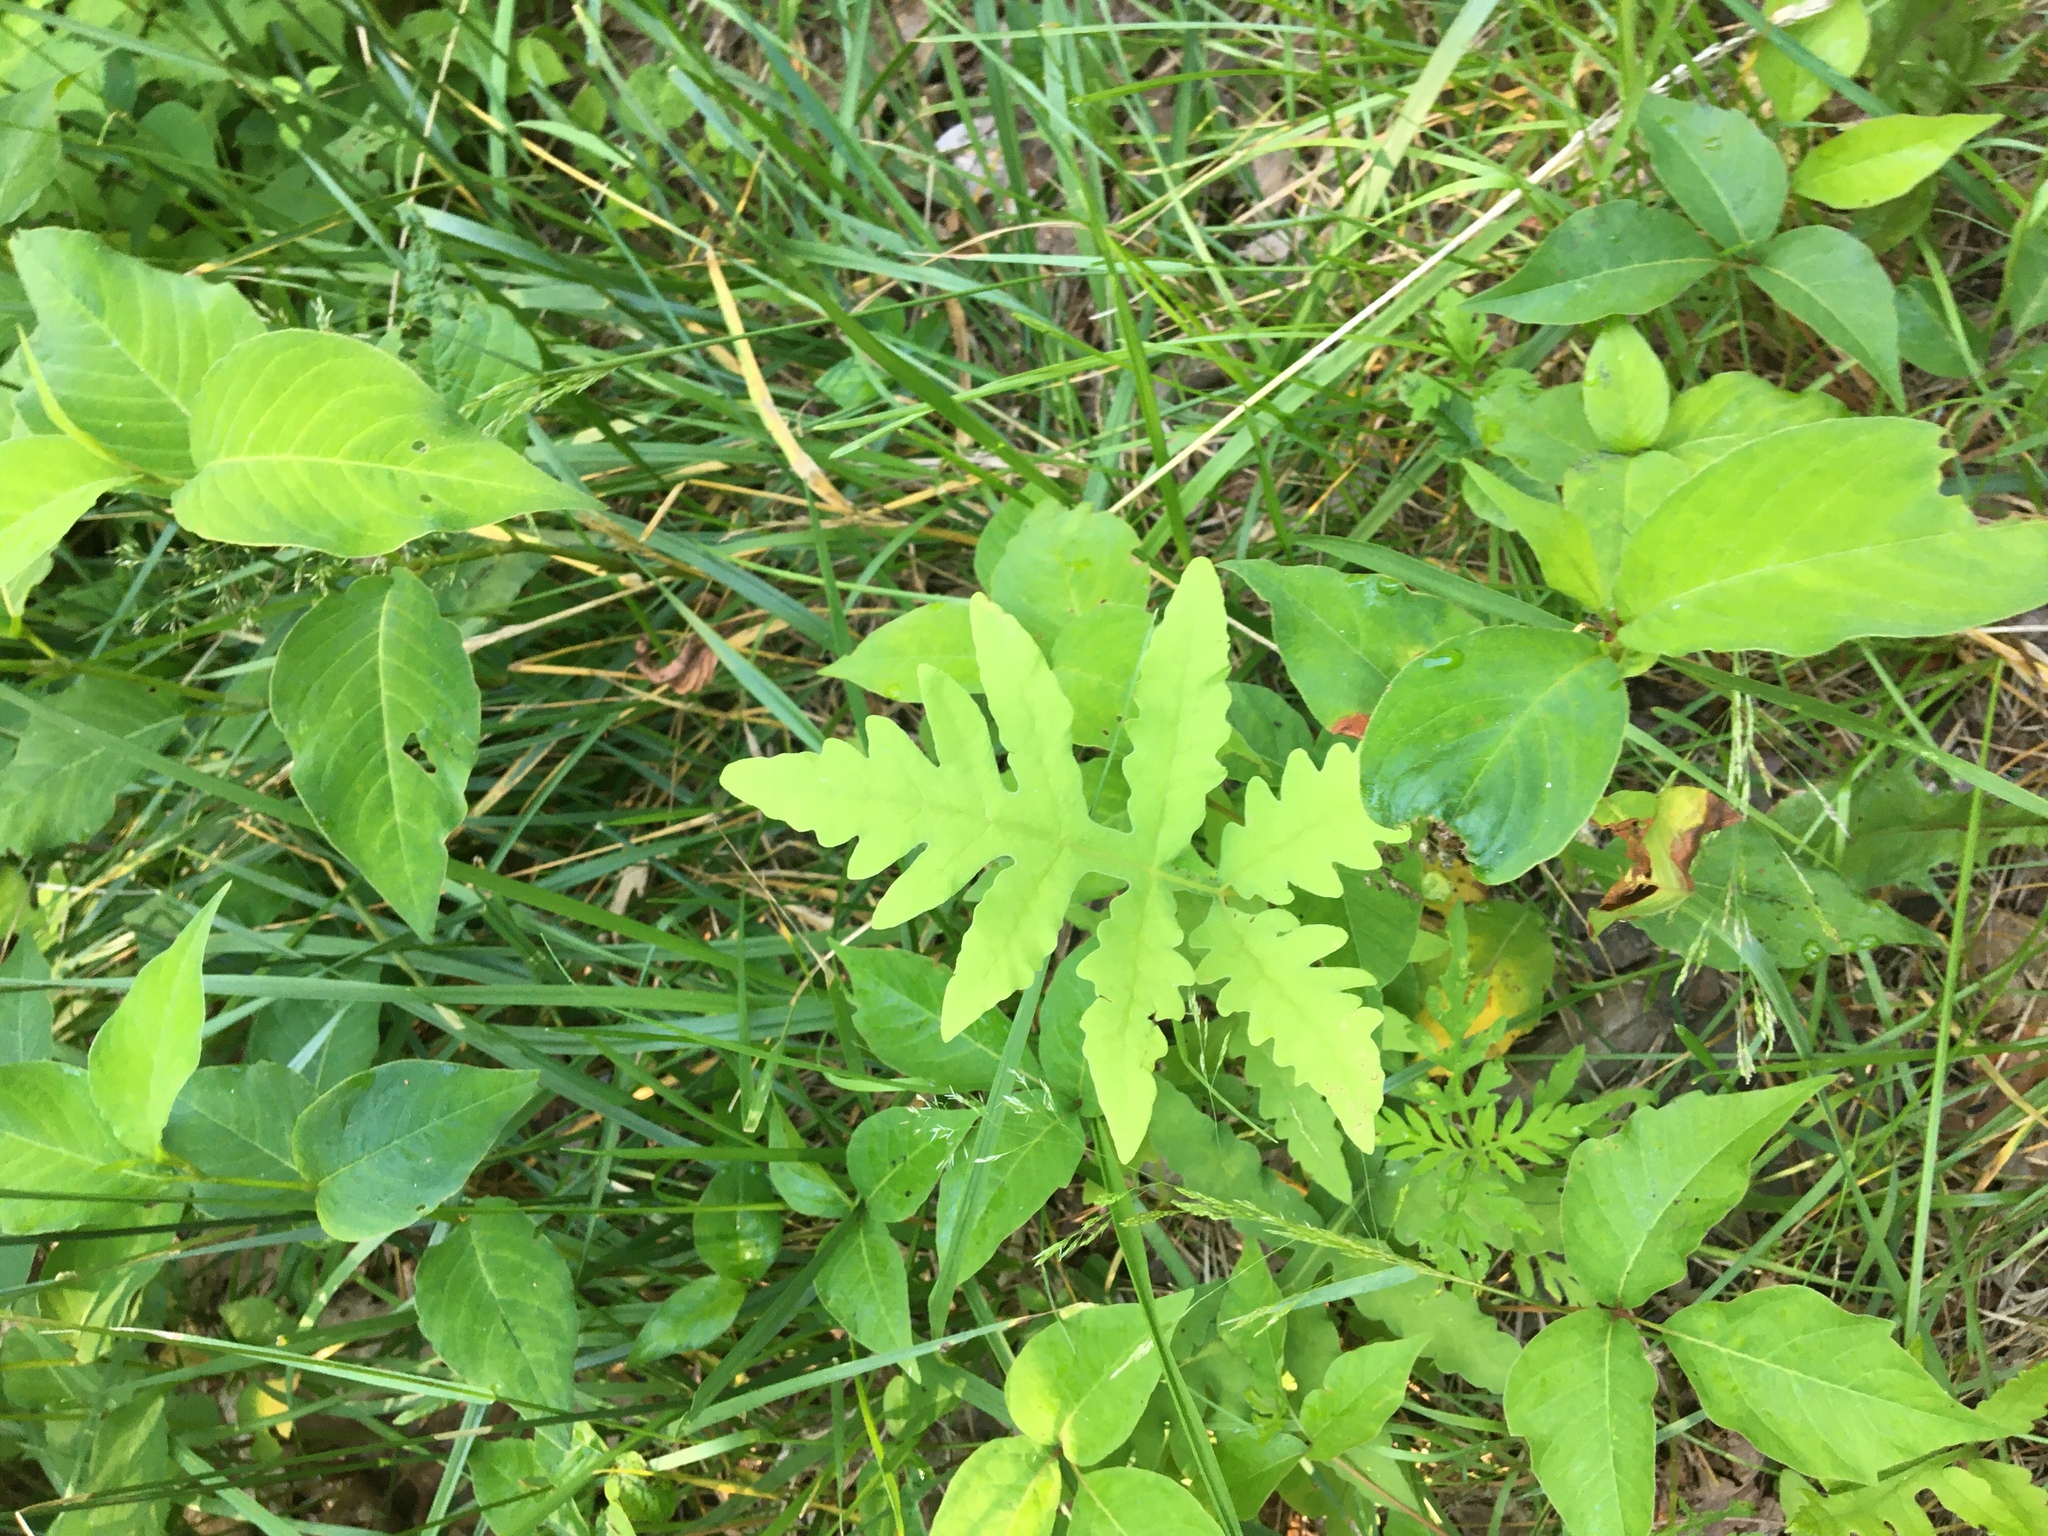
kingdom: Plantae
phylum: Tracheophyta
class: Polypodiopsida
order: Polypodiales
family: Onocleaceae
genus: Onoclea
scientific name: Onoclea sensibilis
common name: Sensitive fern
